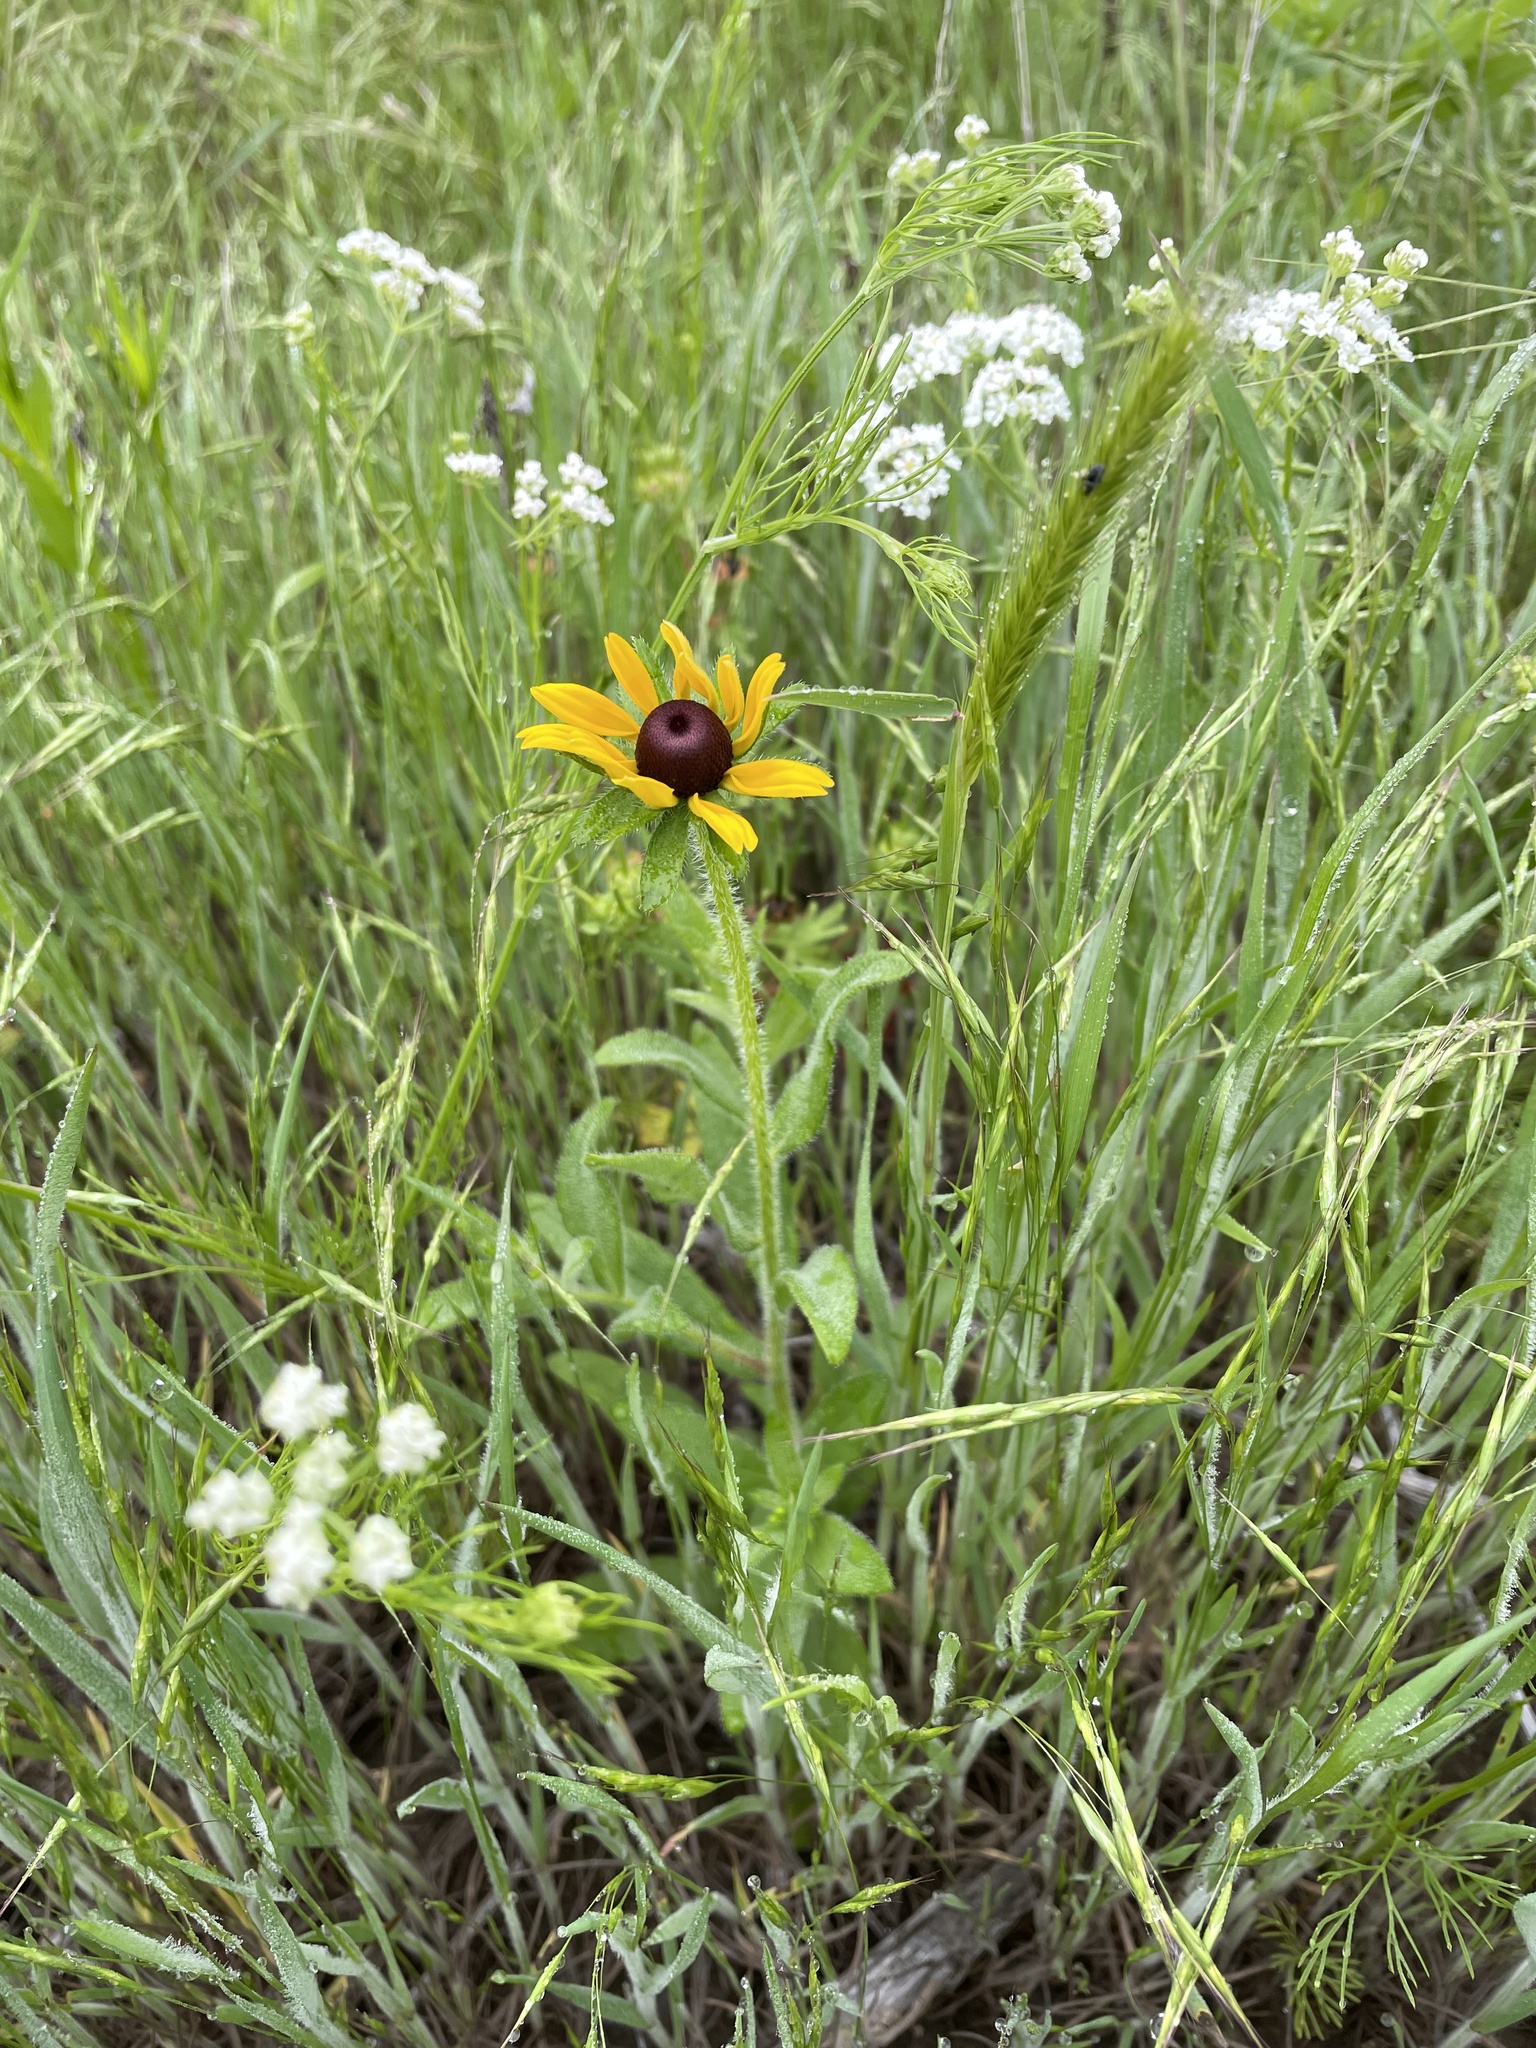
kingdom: Plantae
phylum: Tracheophyta
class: Magnoliopsida
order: Asterales
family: Asteraceae
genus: Rudbeckia
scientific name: Rudbeckia hirta
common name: Black-eyed-susan
